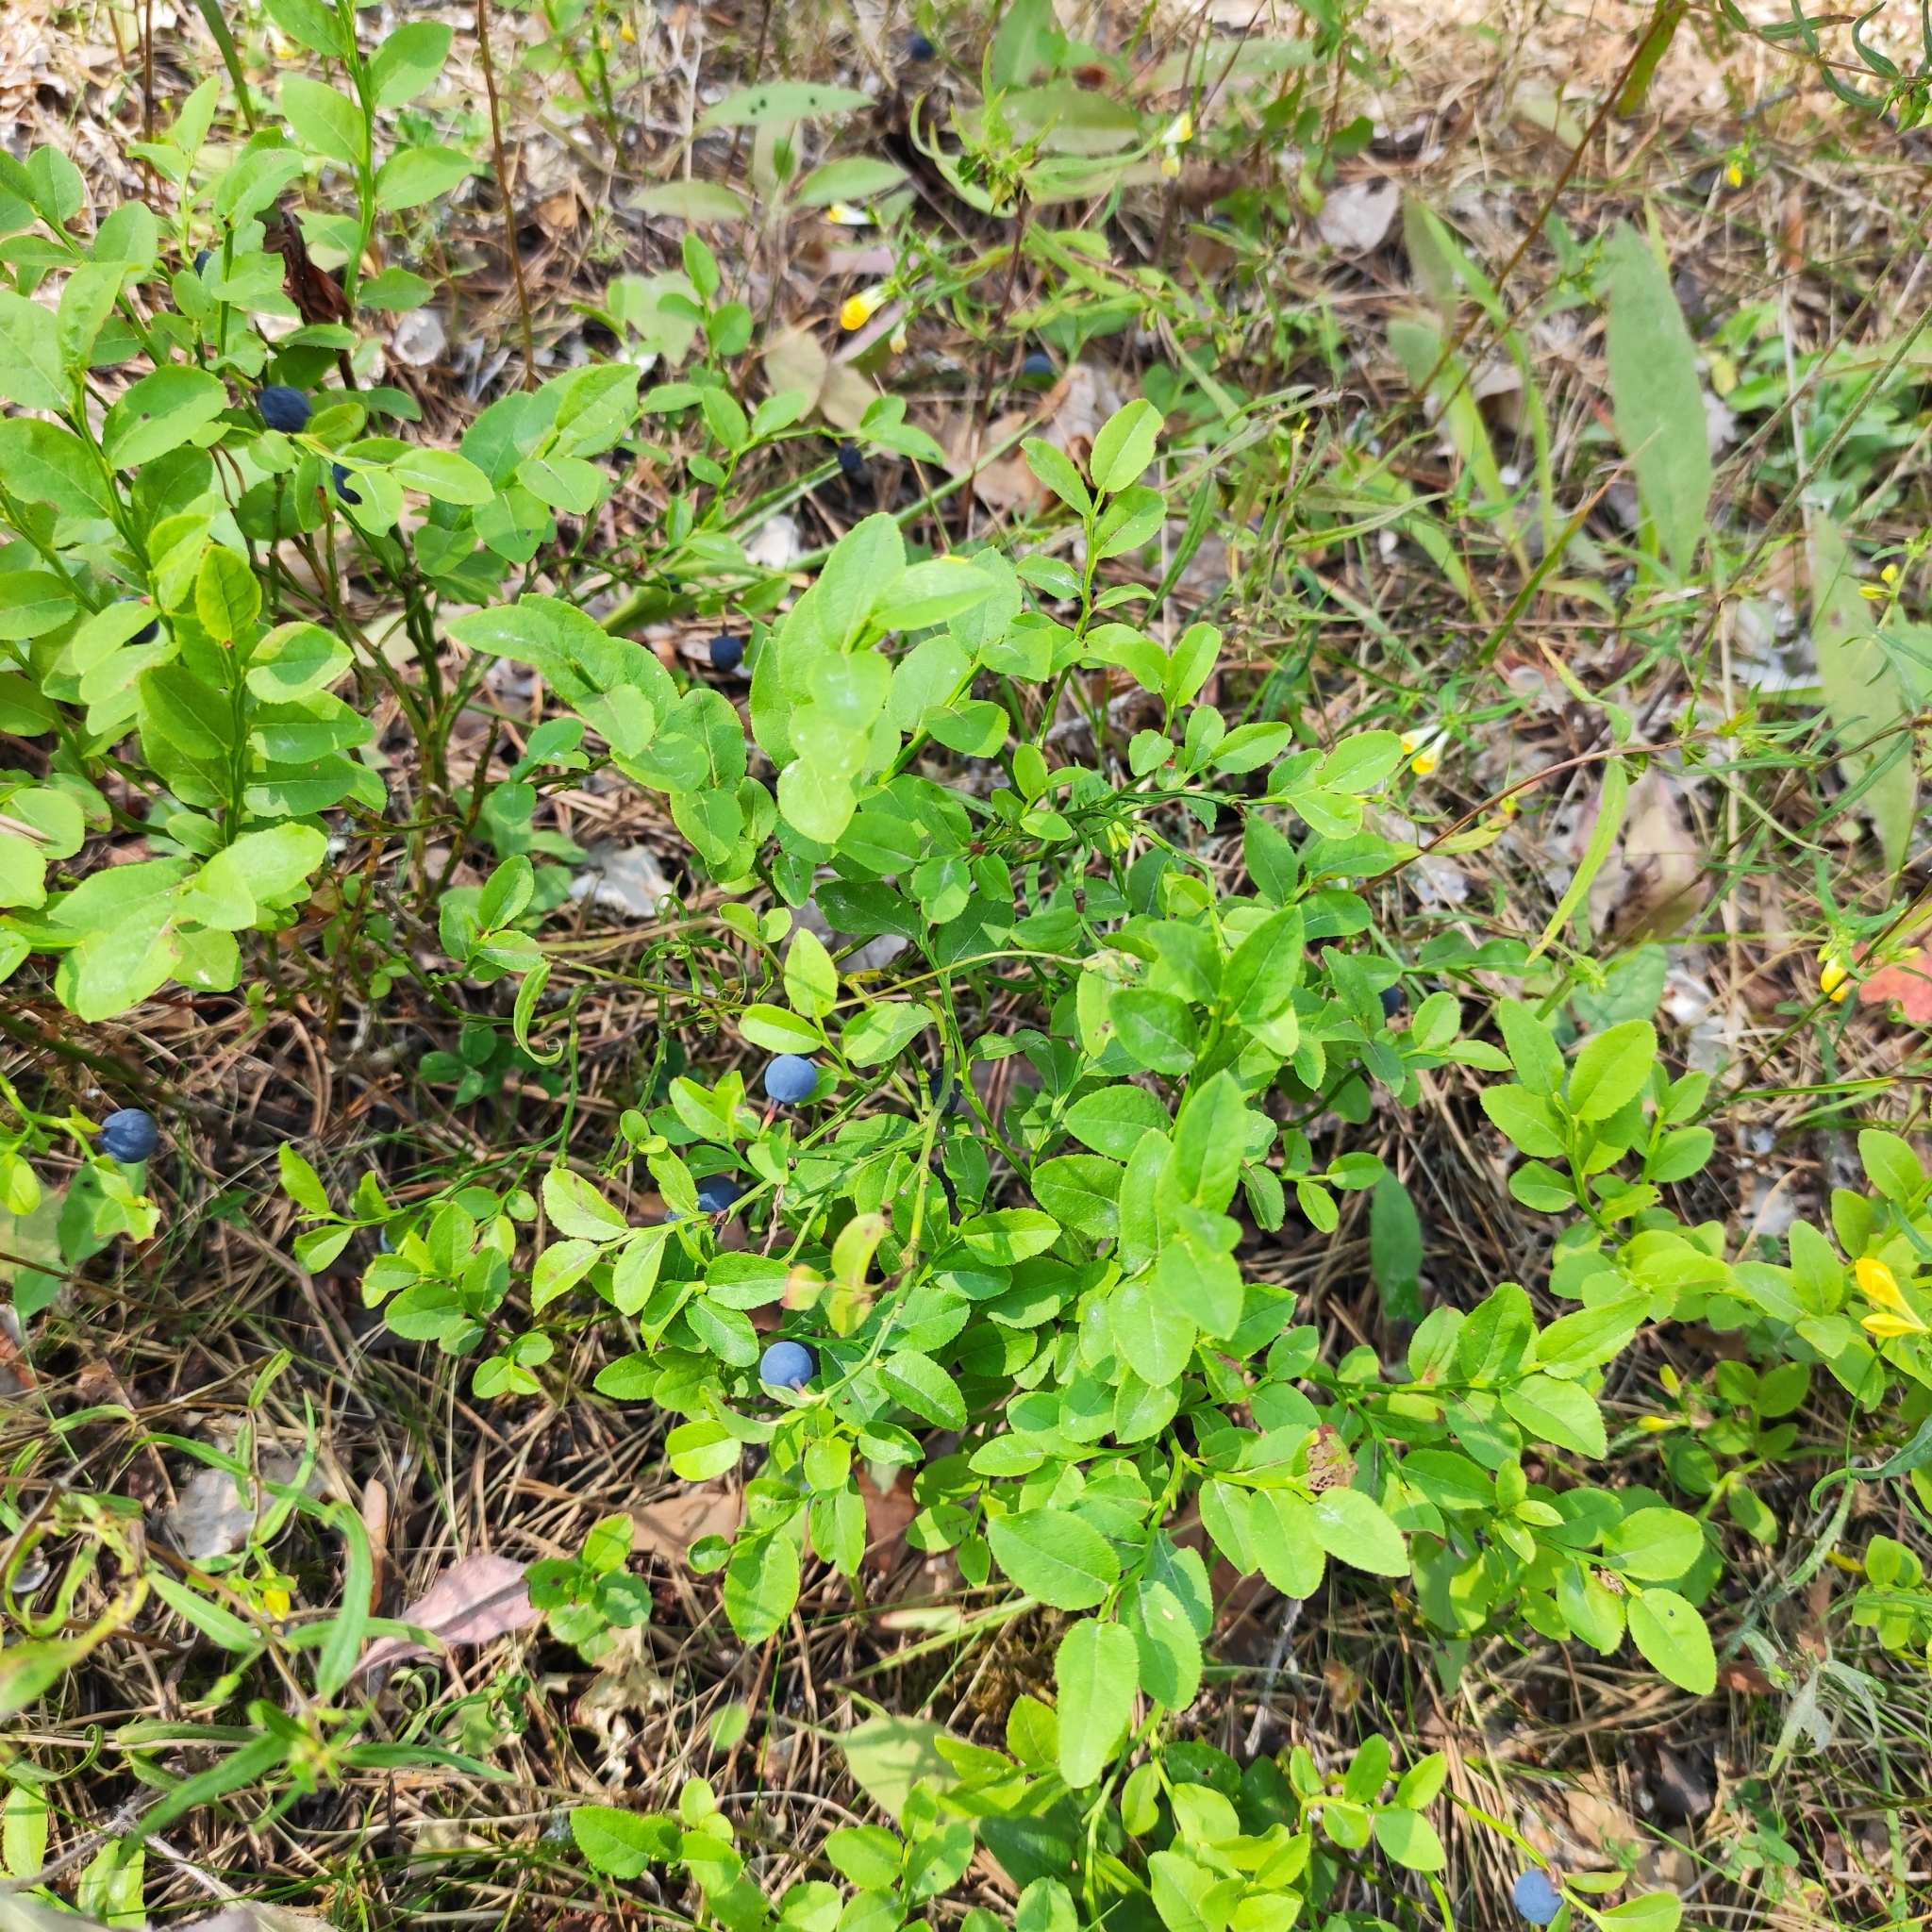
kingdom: Plantae
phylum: Tracheophyta
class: Magnoliopsida
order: Ericales
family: Ericaceae
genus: Vaccinium
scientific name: Vaccinium myrtillus
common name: Bilberry
